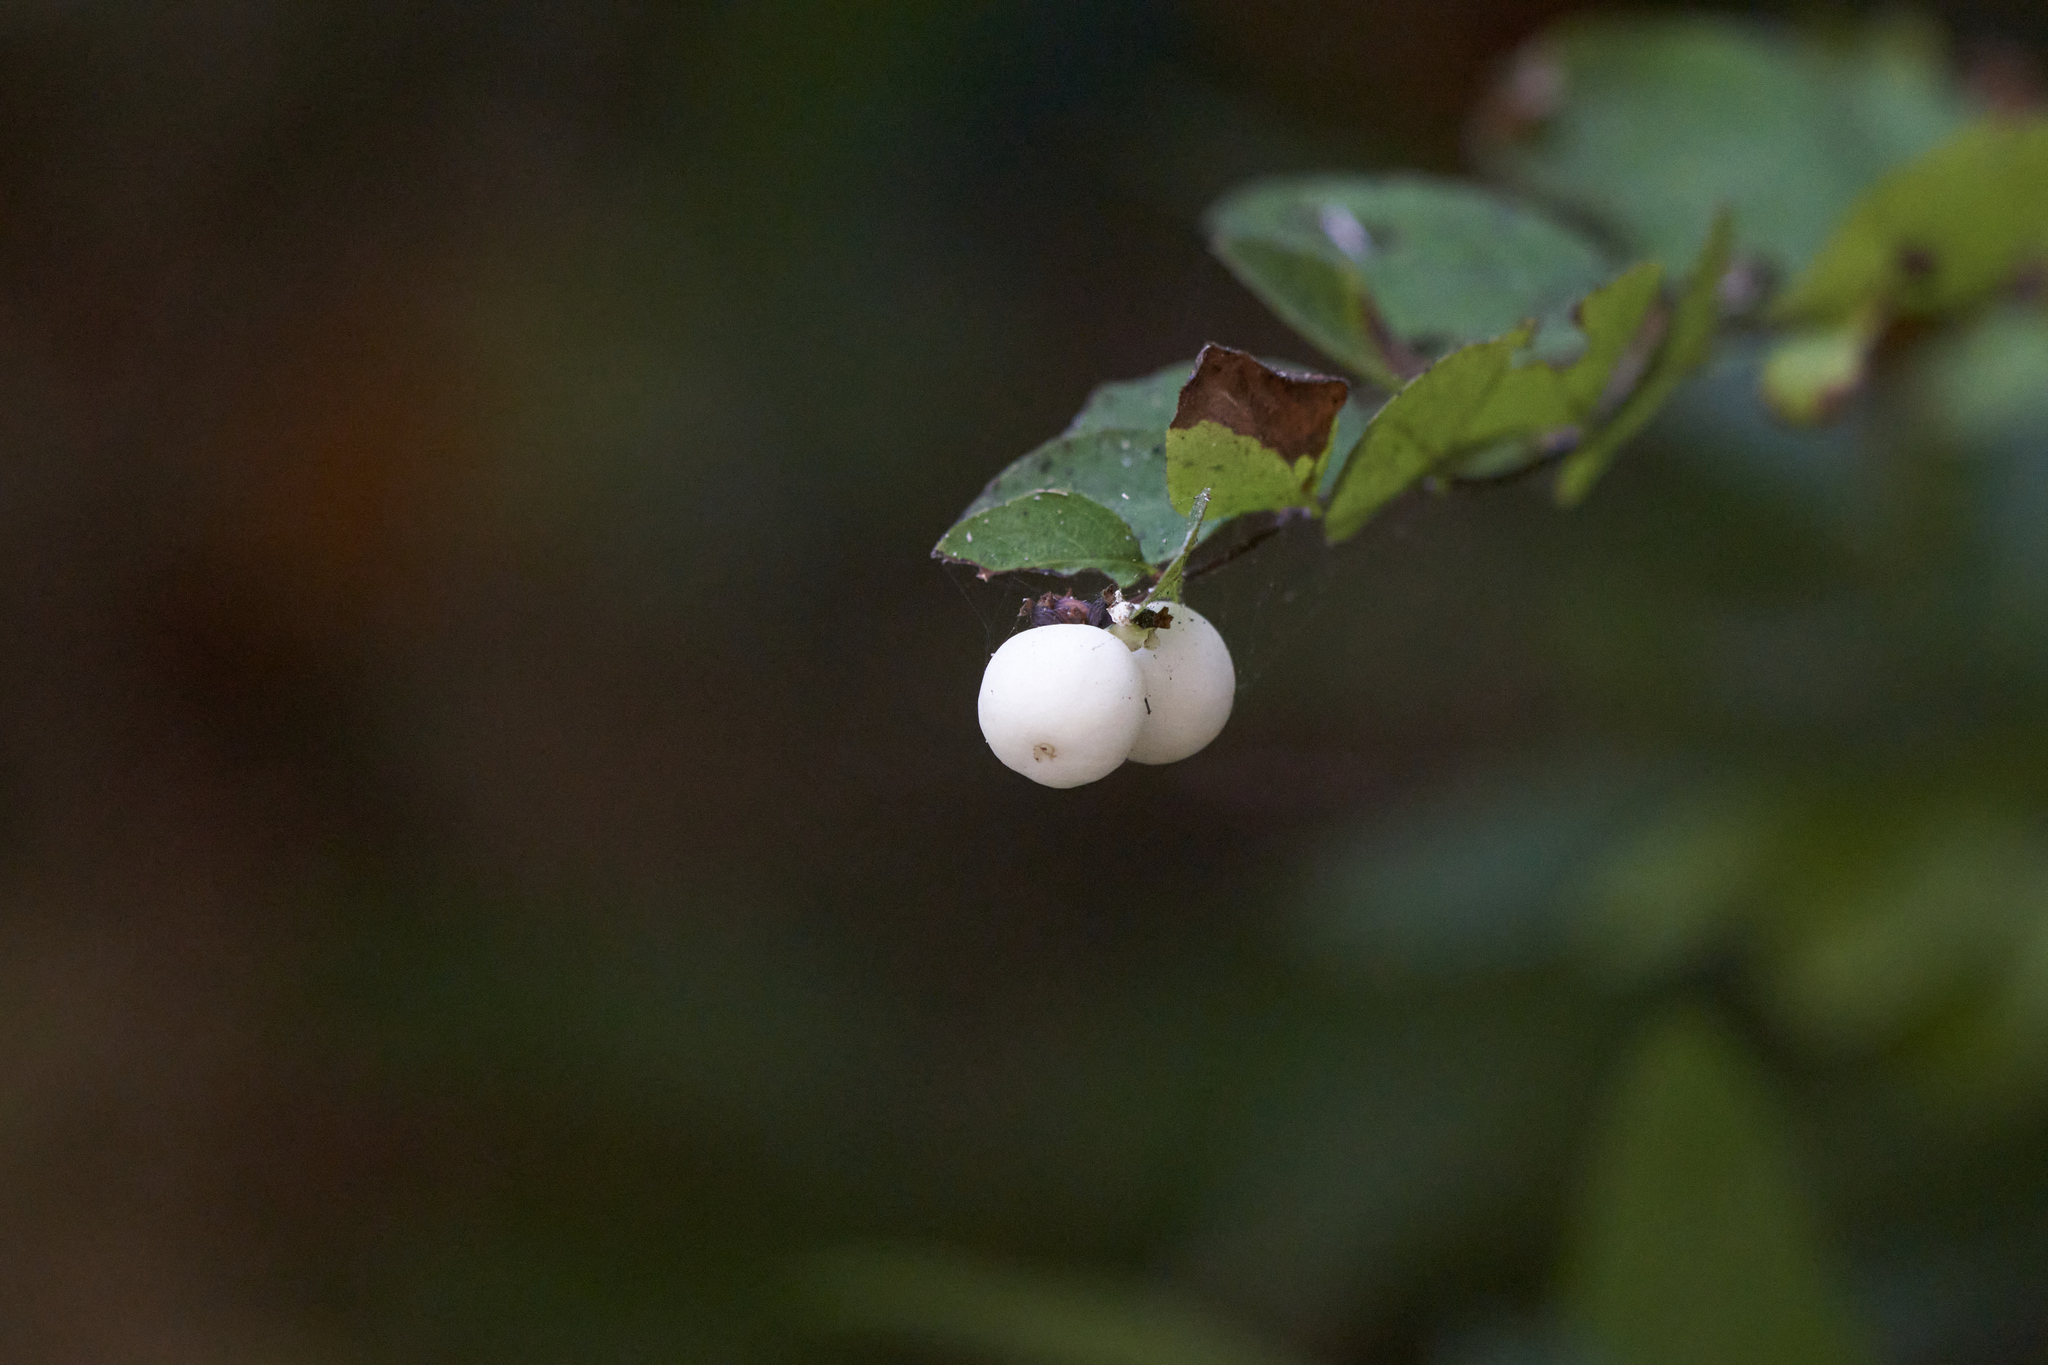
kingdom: Plantae
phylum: Tracheophyta
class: Magnoliopsida
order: Dipsacales
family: Caprifoliaceae
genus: Symphoricarpos
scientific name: Symphoricarpos albus
